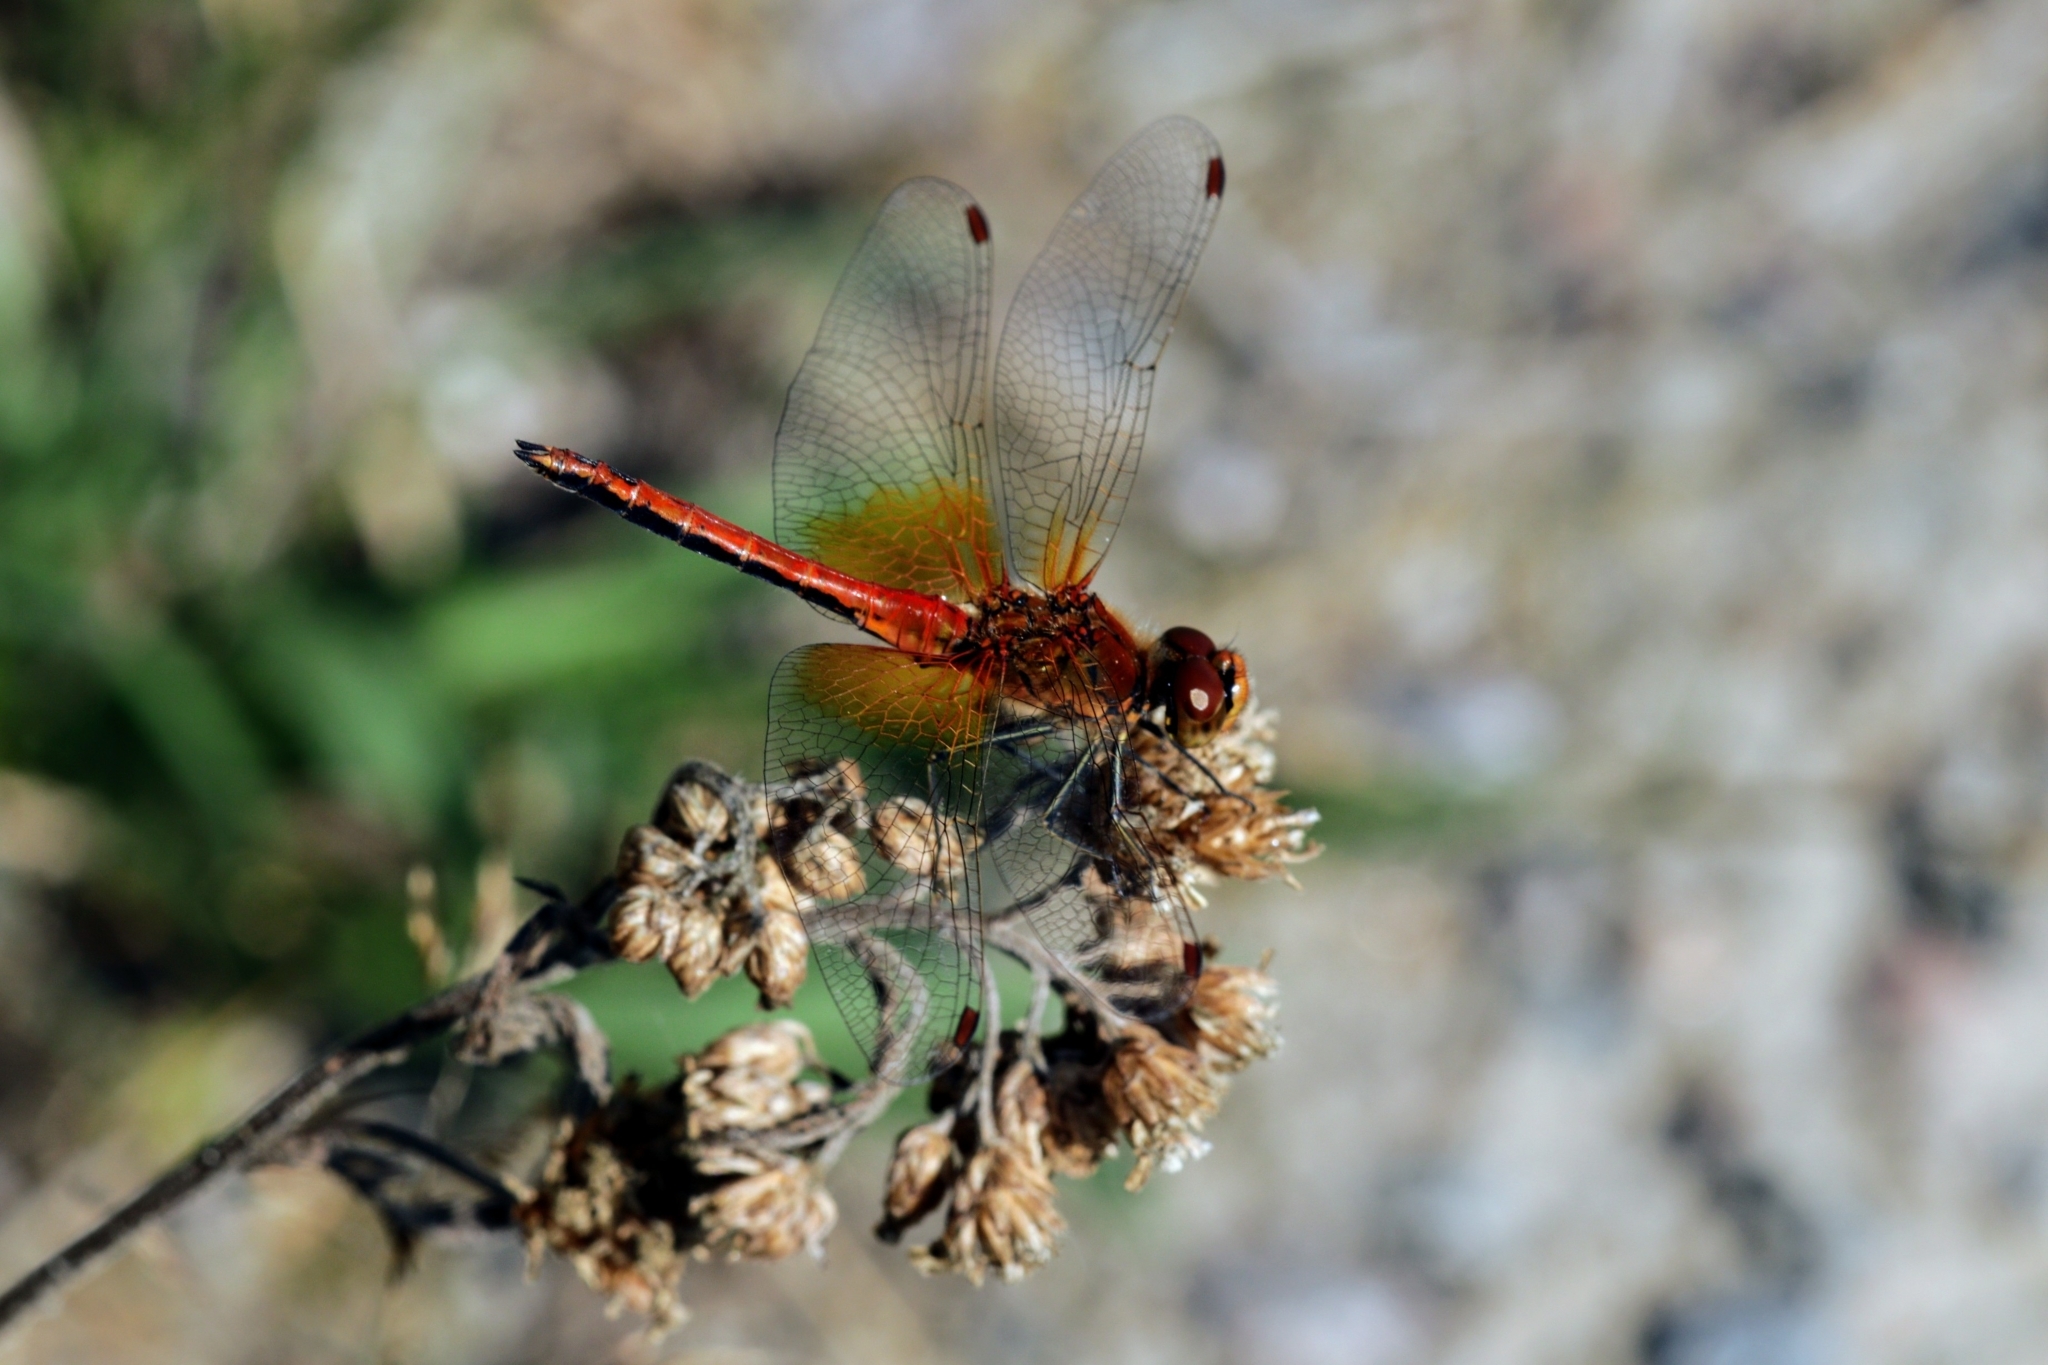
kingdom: Animalia
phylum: Arthropoda
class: Insecta
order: Odonata
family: Libellulidae
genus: Sympetrum
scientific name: Sympetrum flaveolum
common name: Yellow-winged darter
